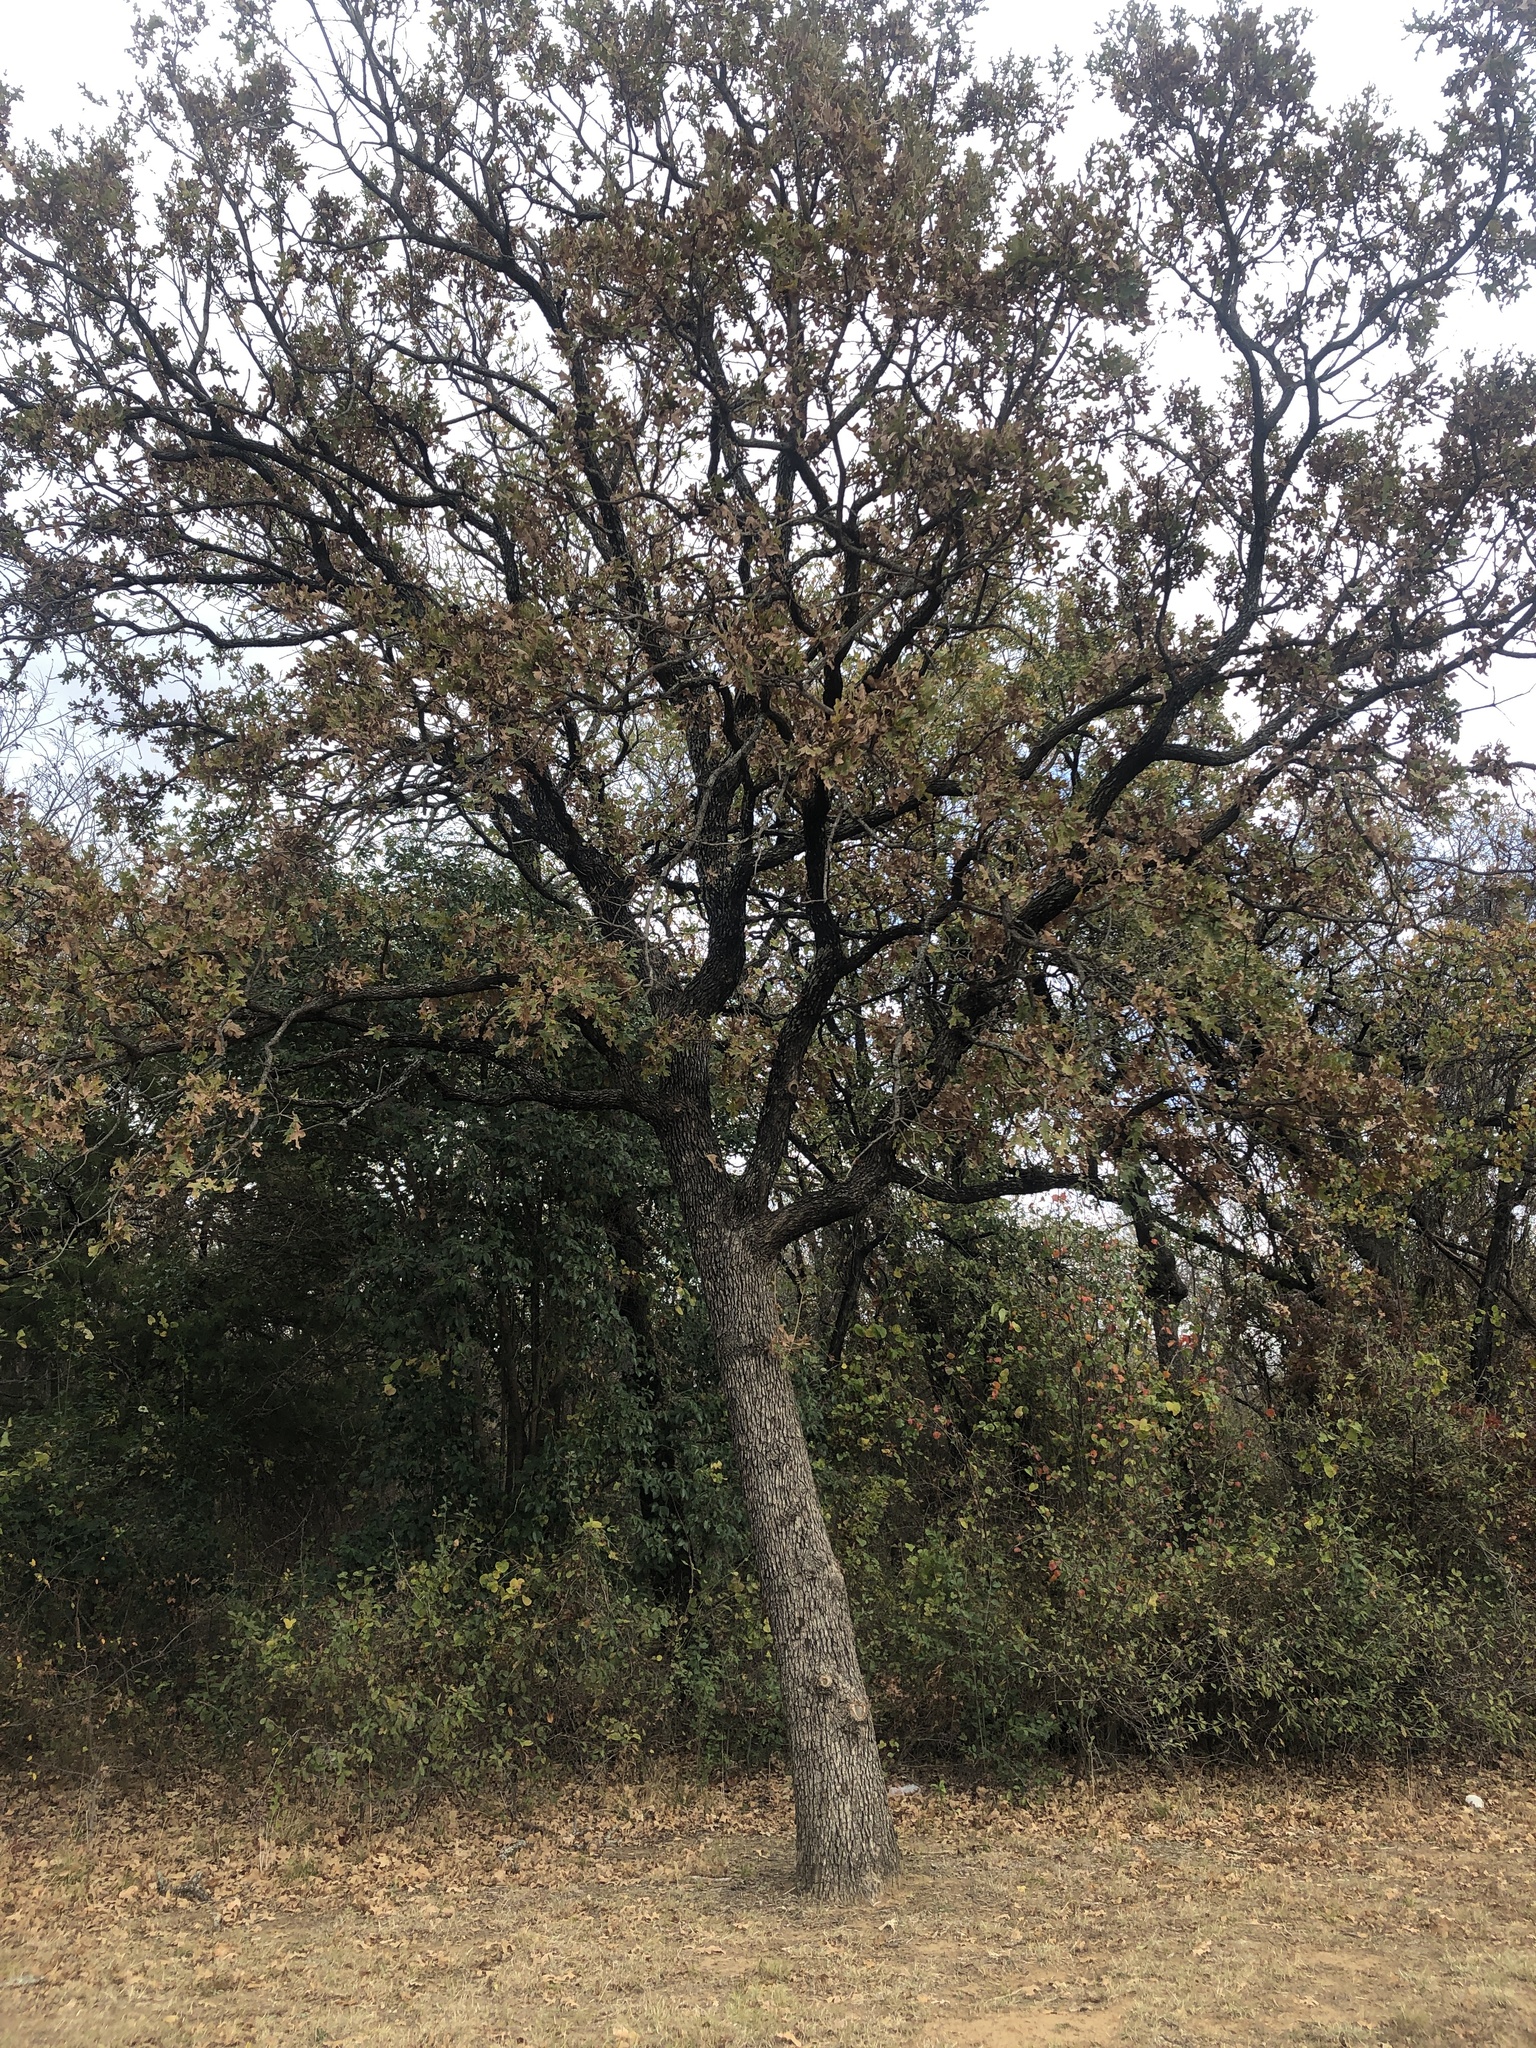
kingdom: Plantae
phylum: Tracheophyta
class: Magnoliopsida
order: Fagales
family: Fagaceae
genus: Quercus
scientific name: Quercus stellata
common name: Post oak
